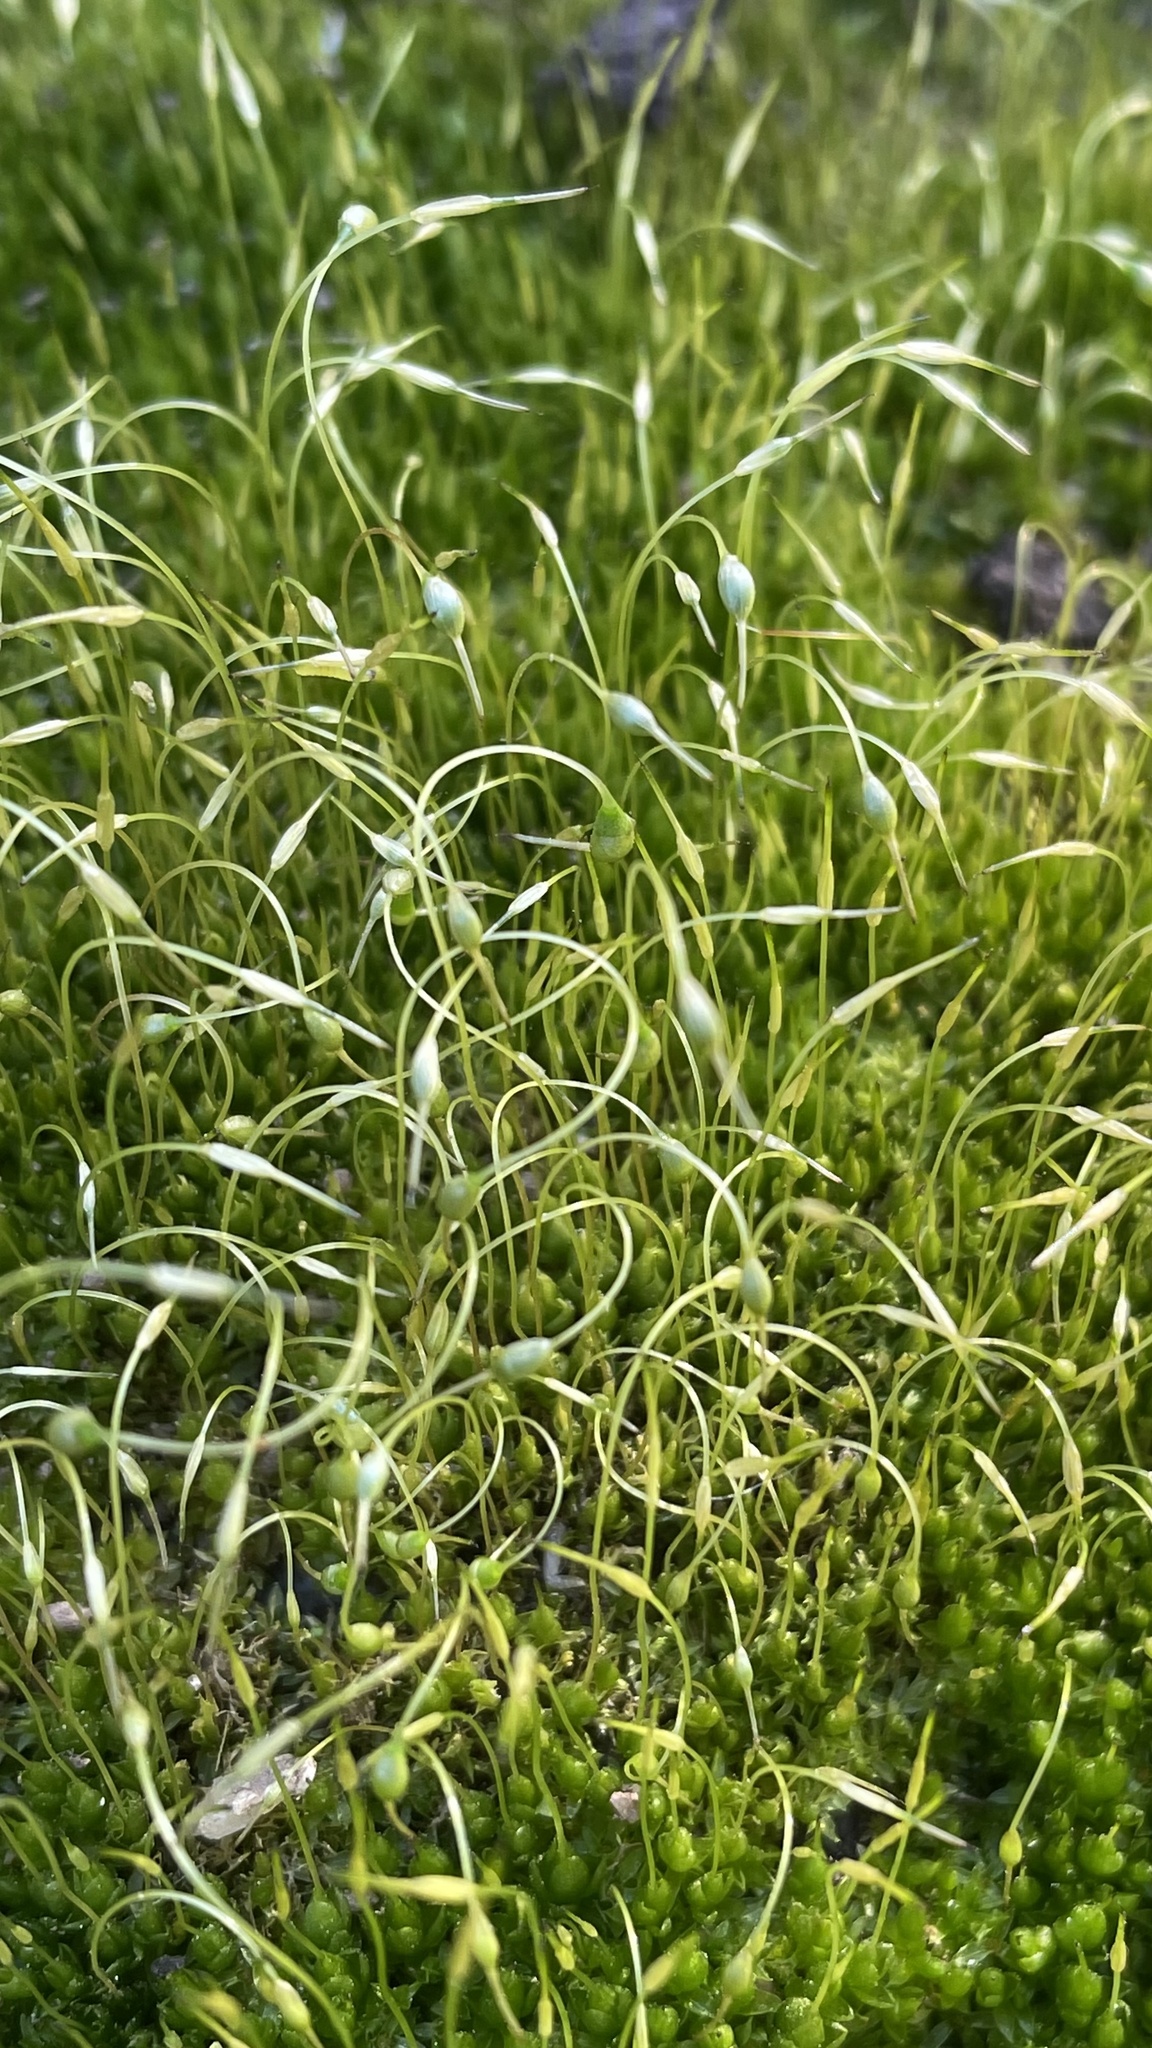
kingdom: Plantae
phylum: Bryophyta
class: Bryopsida
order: Funariales
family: Funariaceae
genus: Funaria
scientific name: Funaria hygrometrica
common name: Common cord moss
